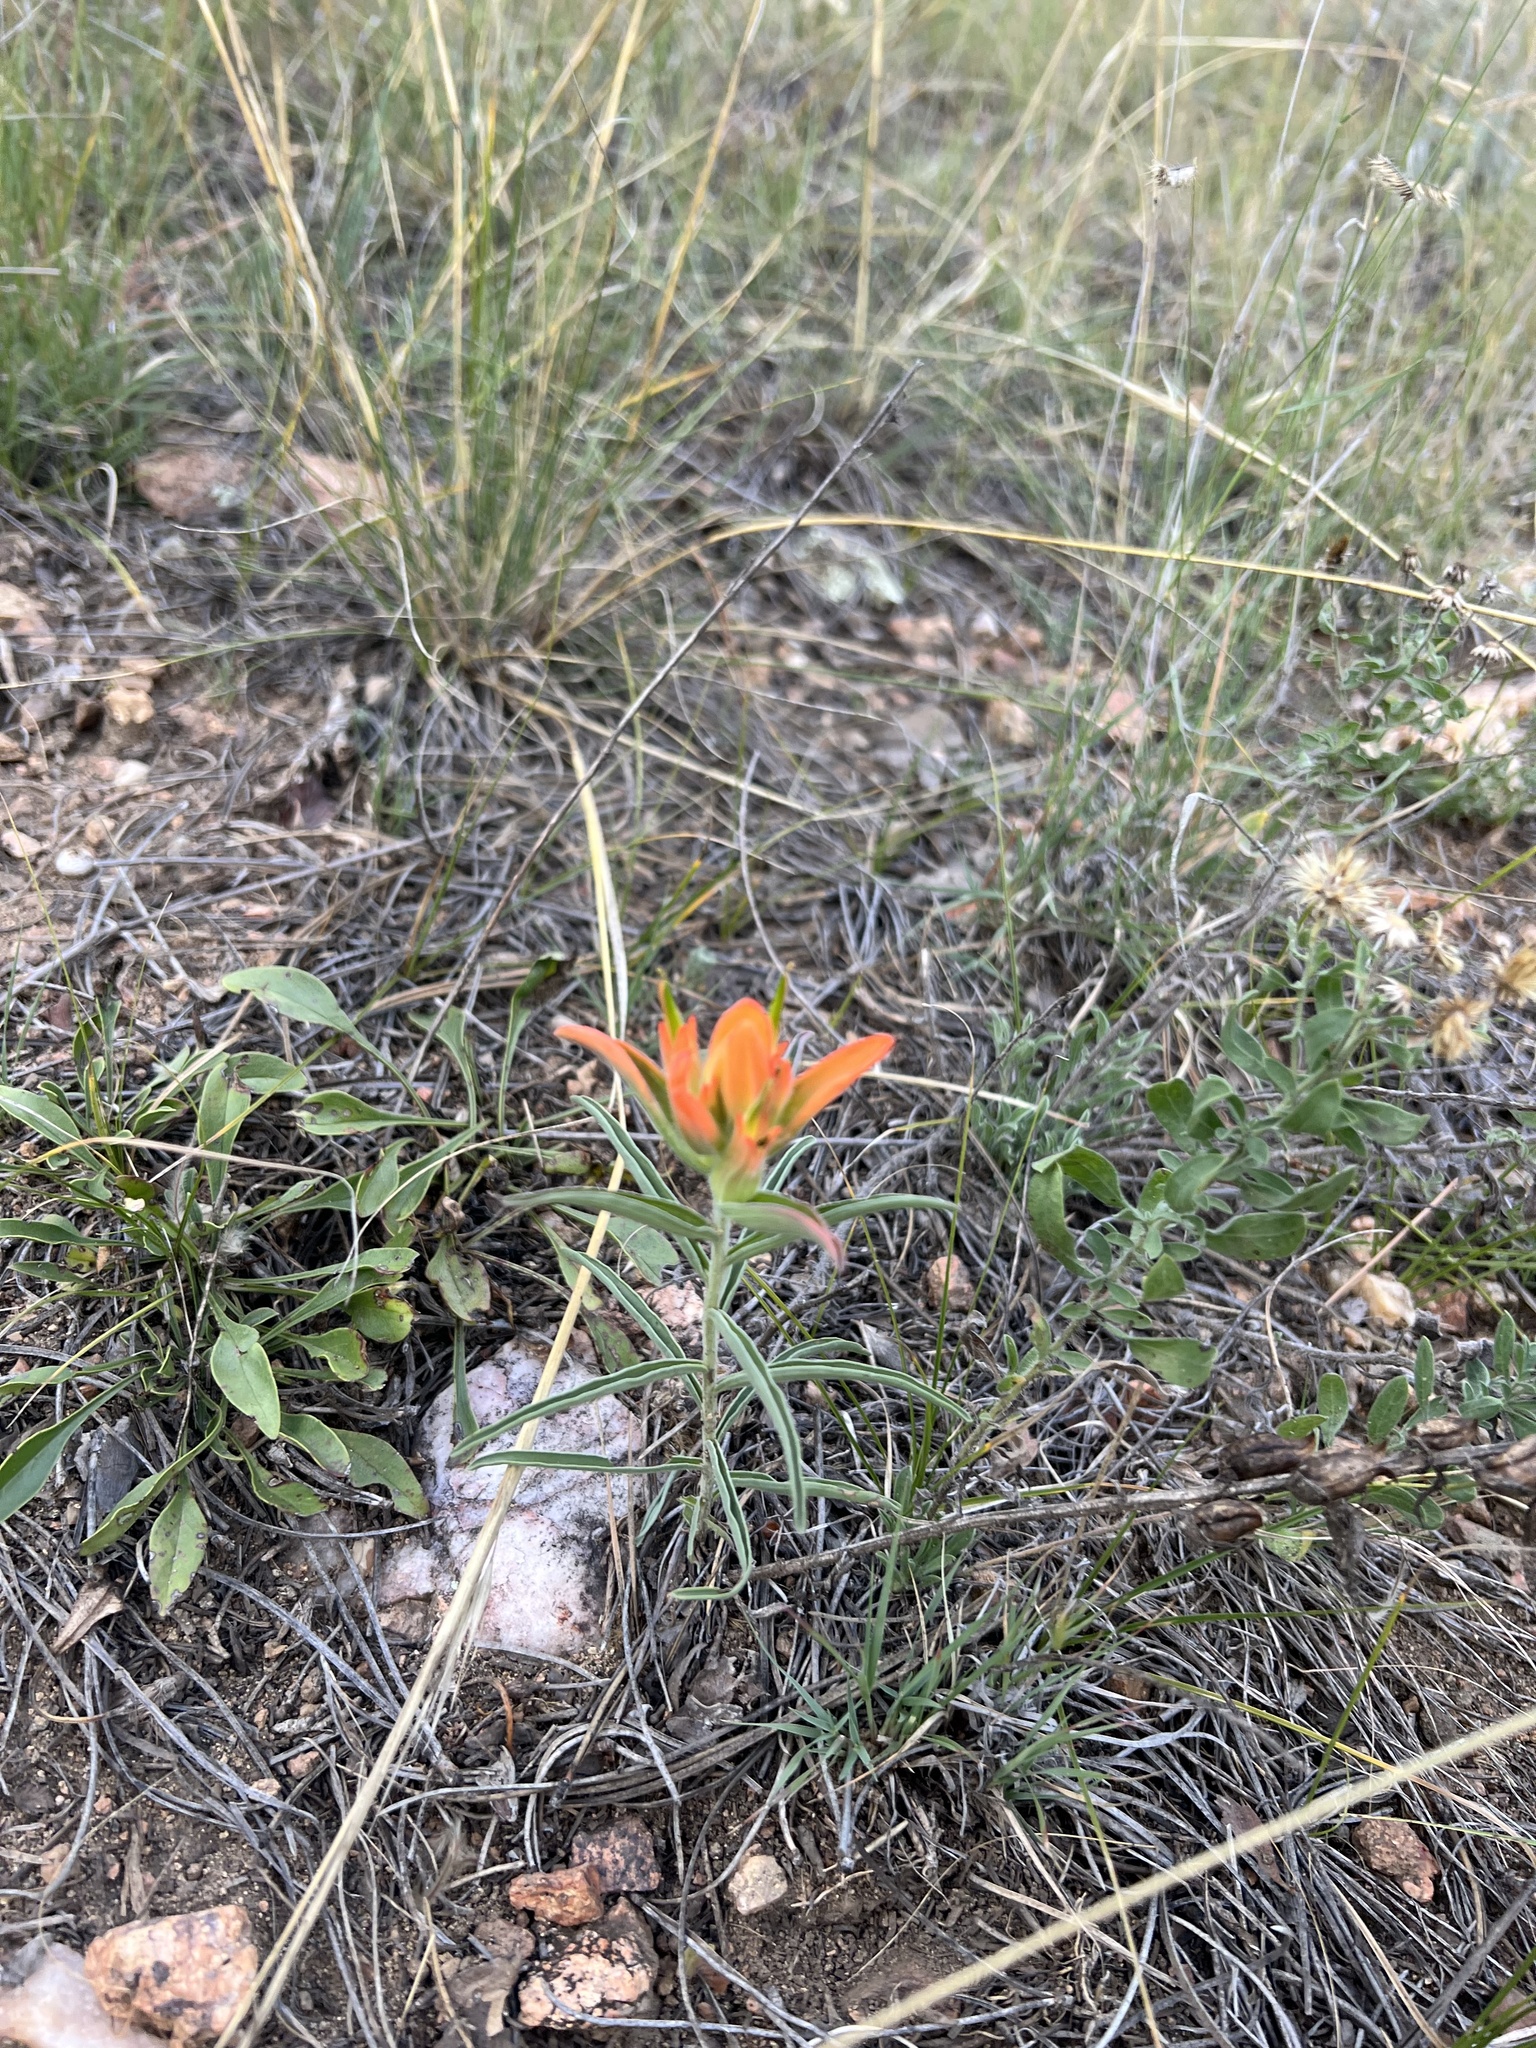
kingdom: Plantae
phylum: Tracheophyta
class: Magnoliopsida
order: Lamiales
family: Orobanchaceae
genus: Castilleja
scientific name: Castilleja integra
